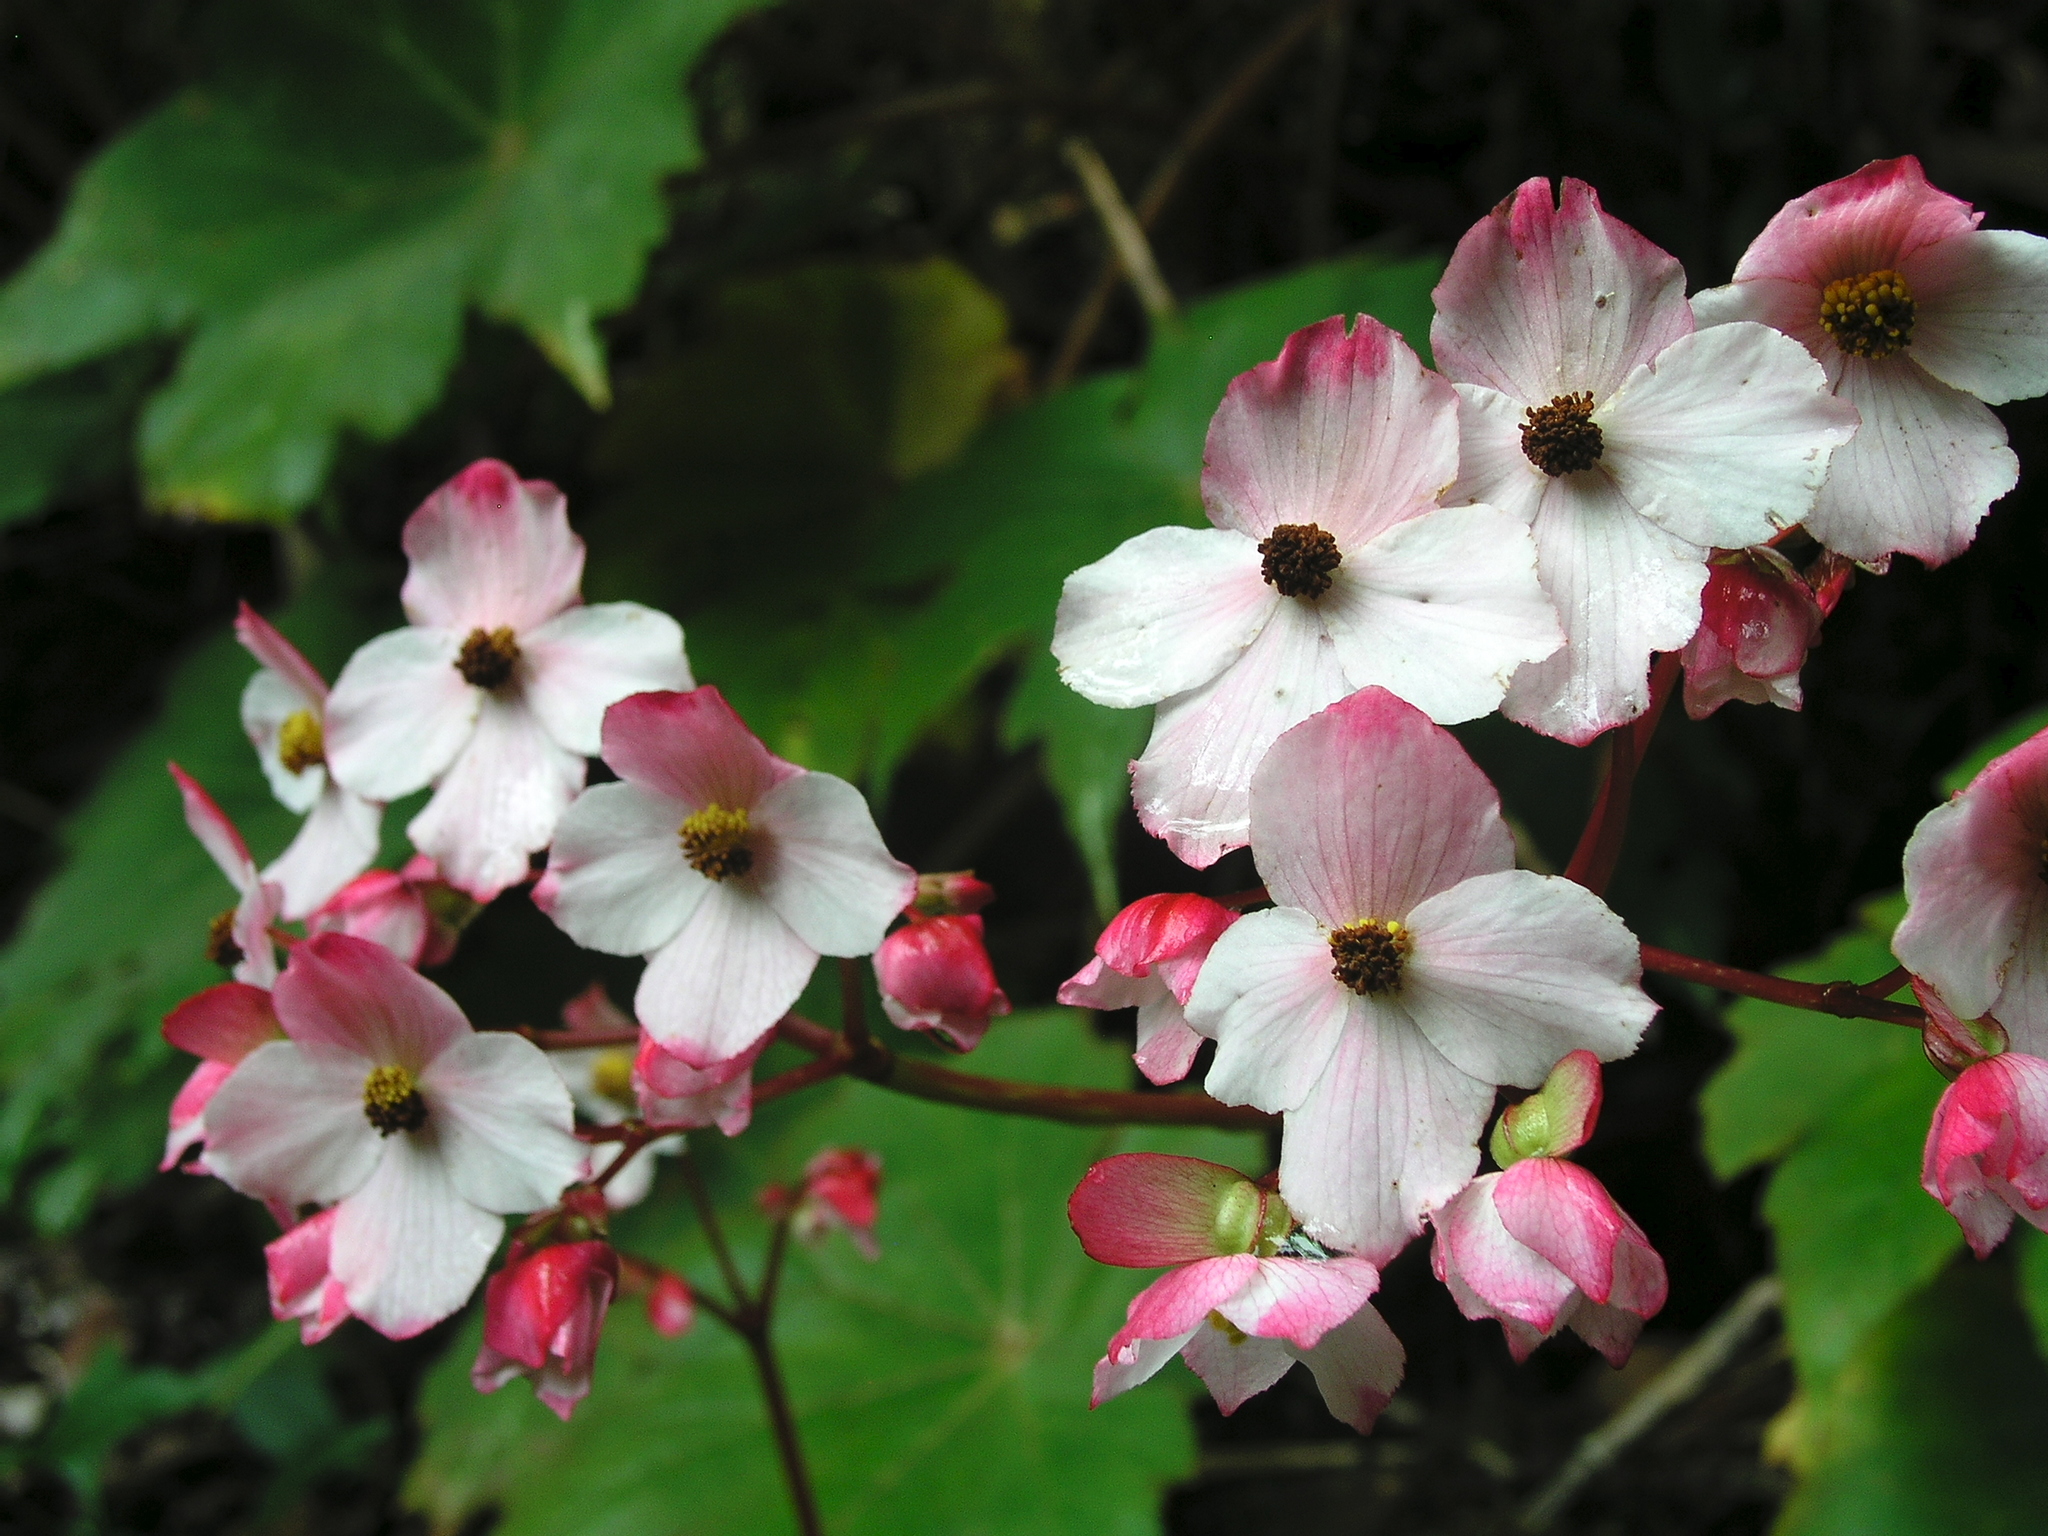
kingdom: Plantae
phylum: Tracheophyta
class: Magnoliopsida
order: Cucurbitales
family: Begoniaceae
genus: Begonia
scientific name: Begonia acerifolia
